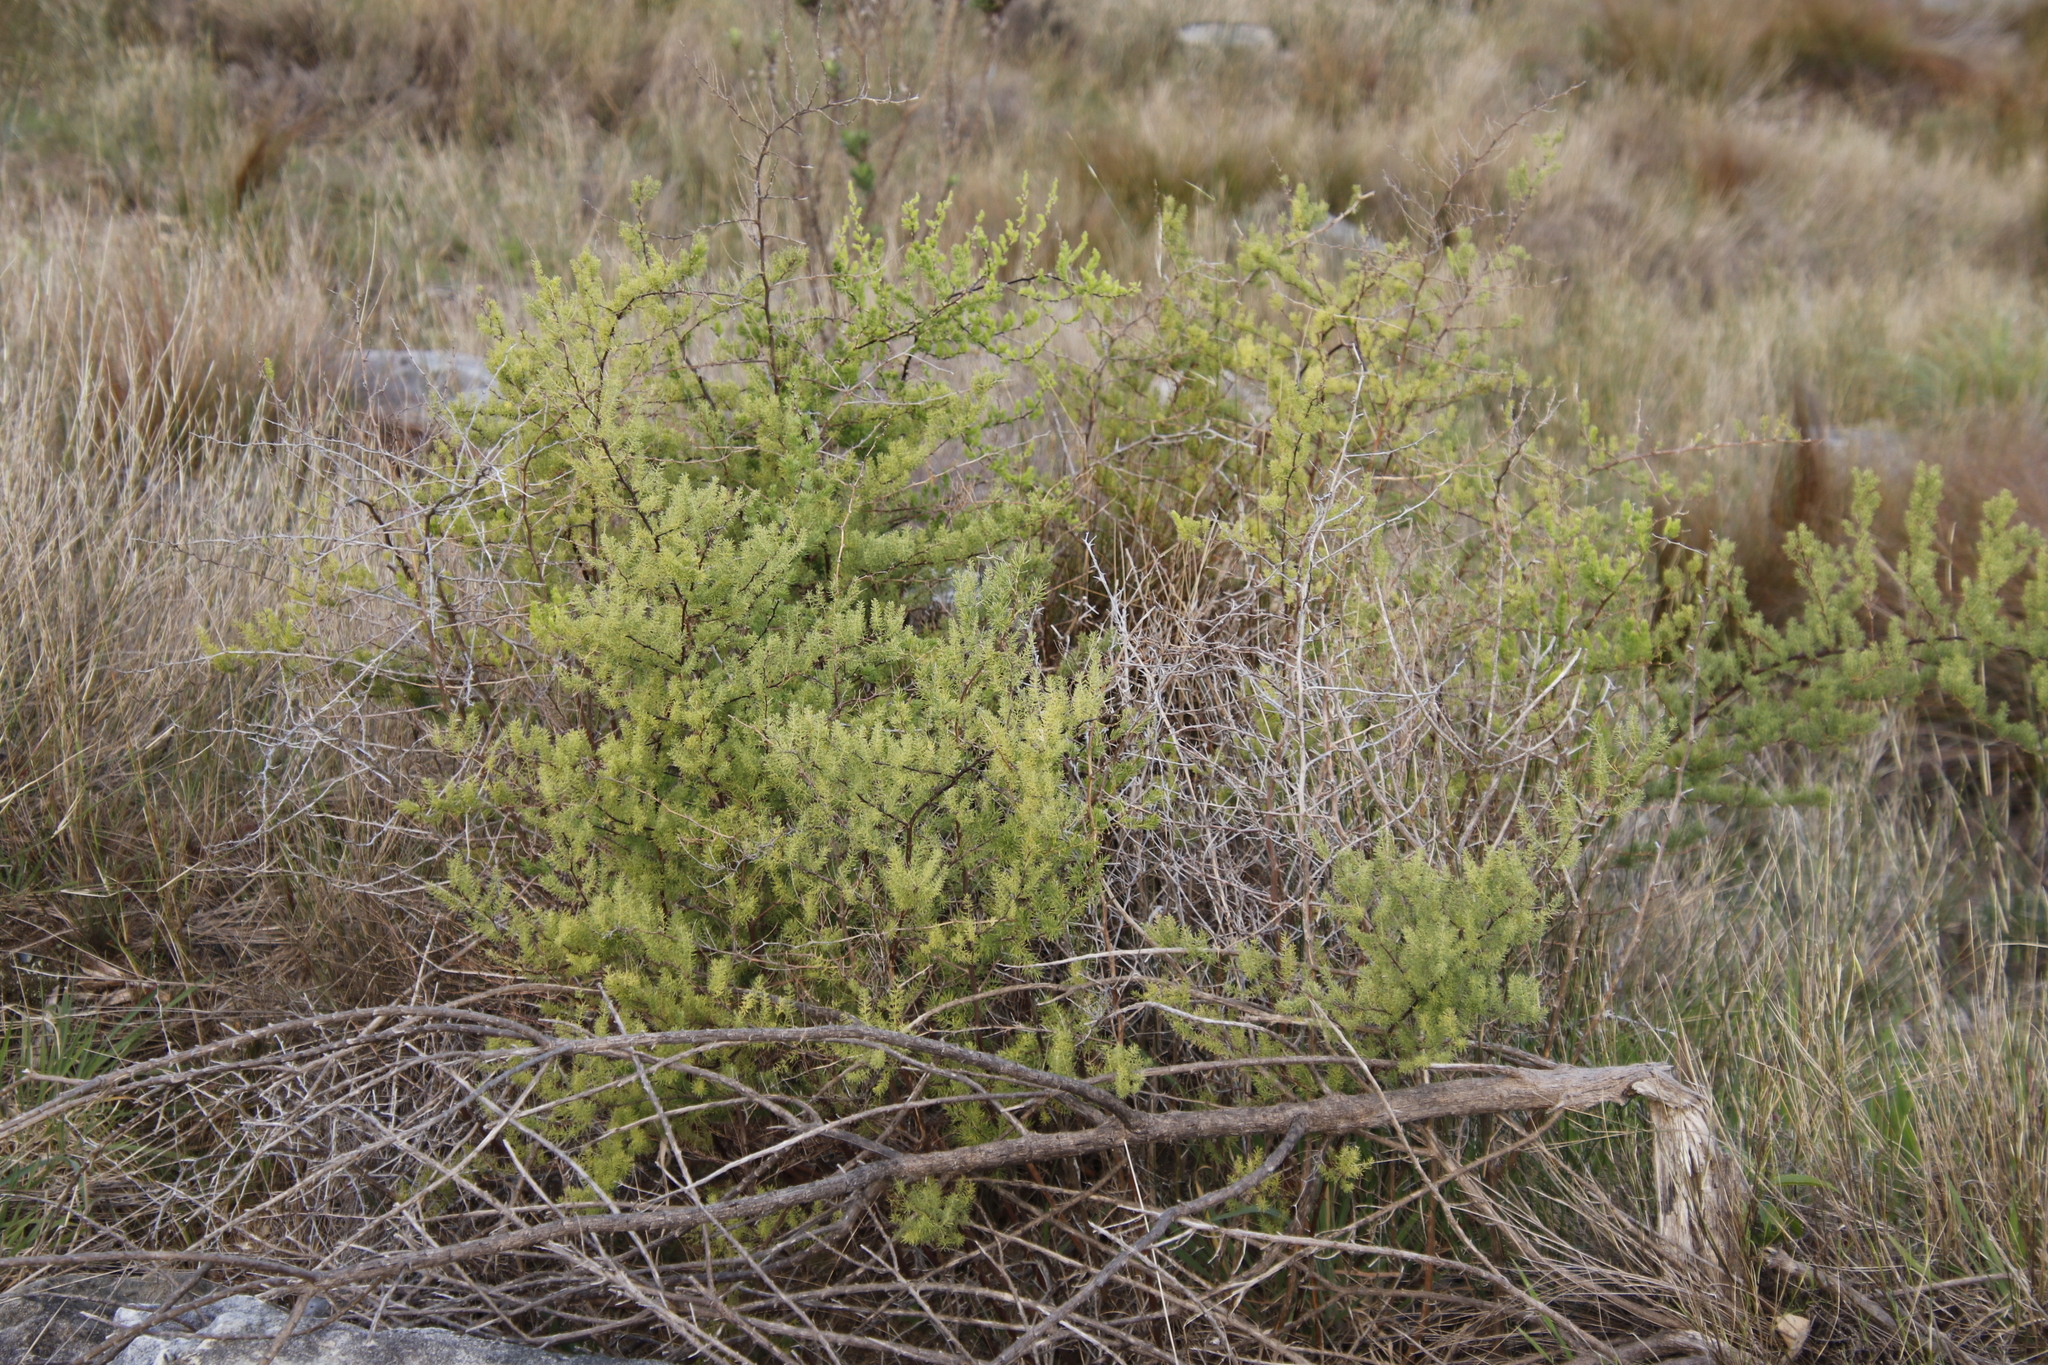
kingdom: Plantae
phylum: Tracheophyta
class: Liliopsida
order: Asparagales
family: Asparagaceae
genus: Asparagus
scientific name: Asparagus rubicundus
